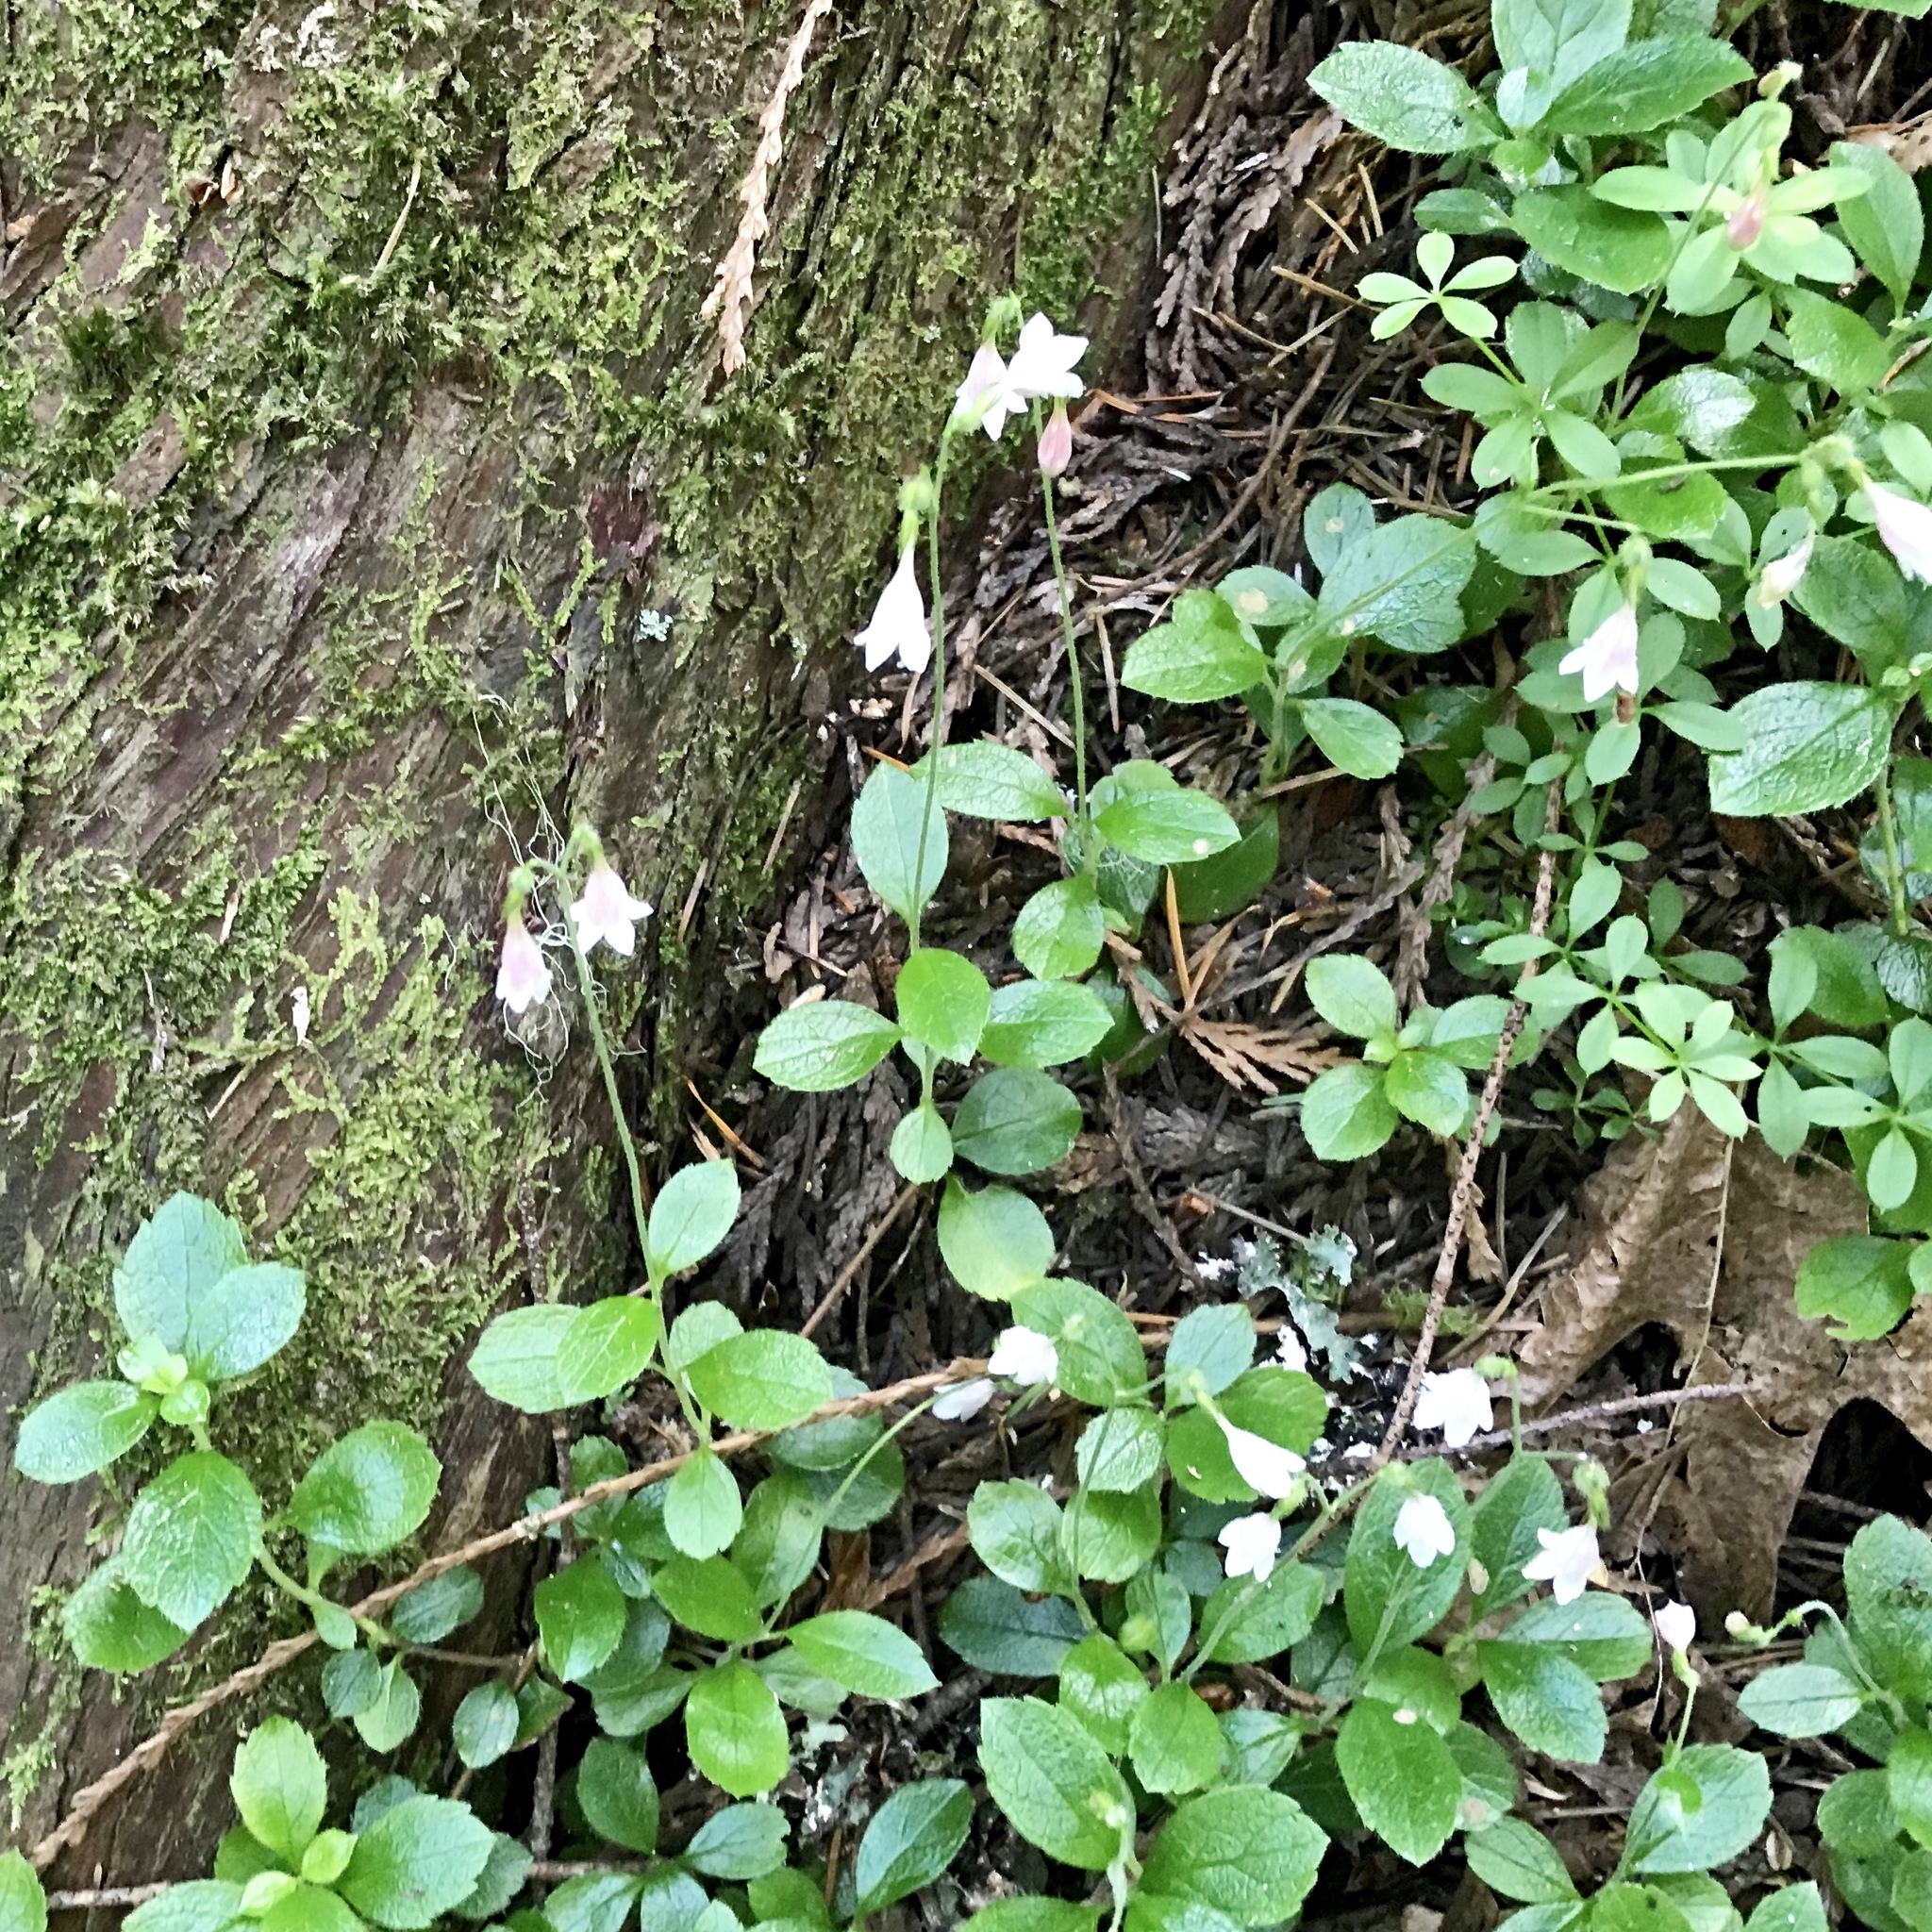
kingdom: Plantae
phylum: Tracheophyta
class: Magnoliopsida
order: Dipsacales
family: Caprifoliaceae
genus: Linnaea
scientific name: Linnaea borealis
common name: Twinflower
